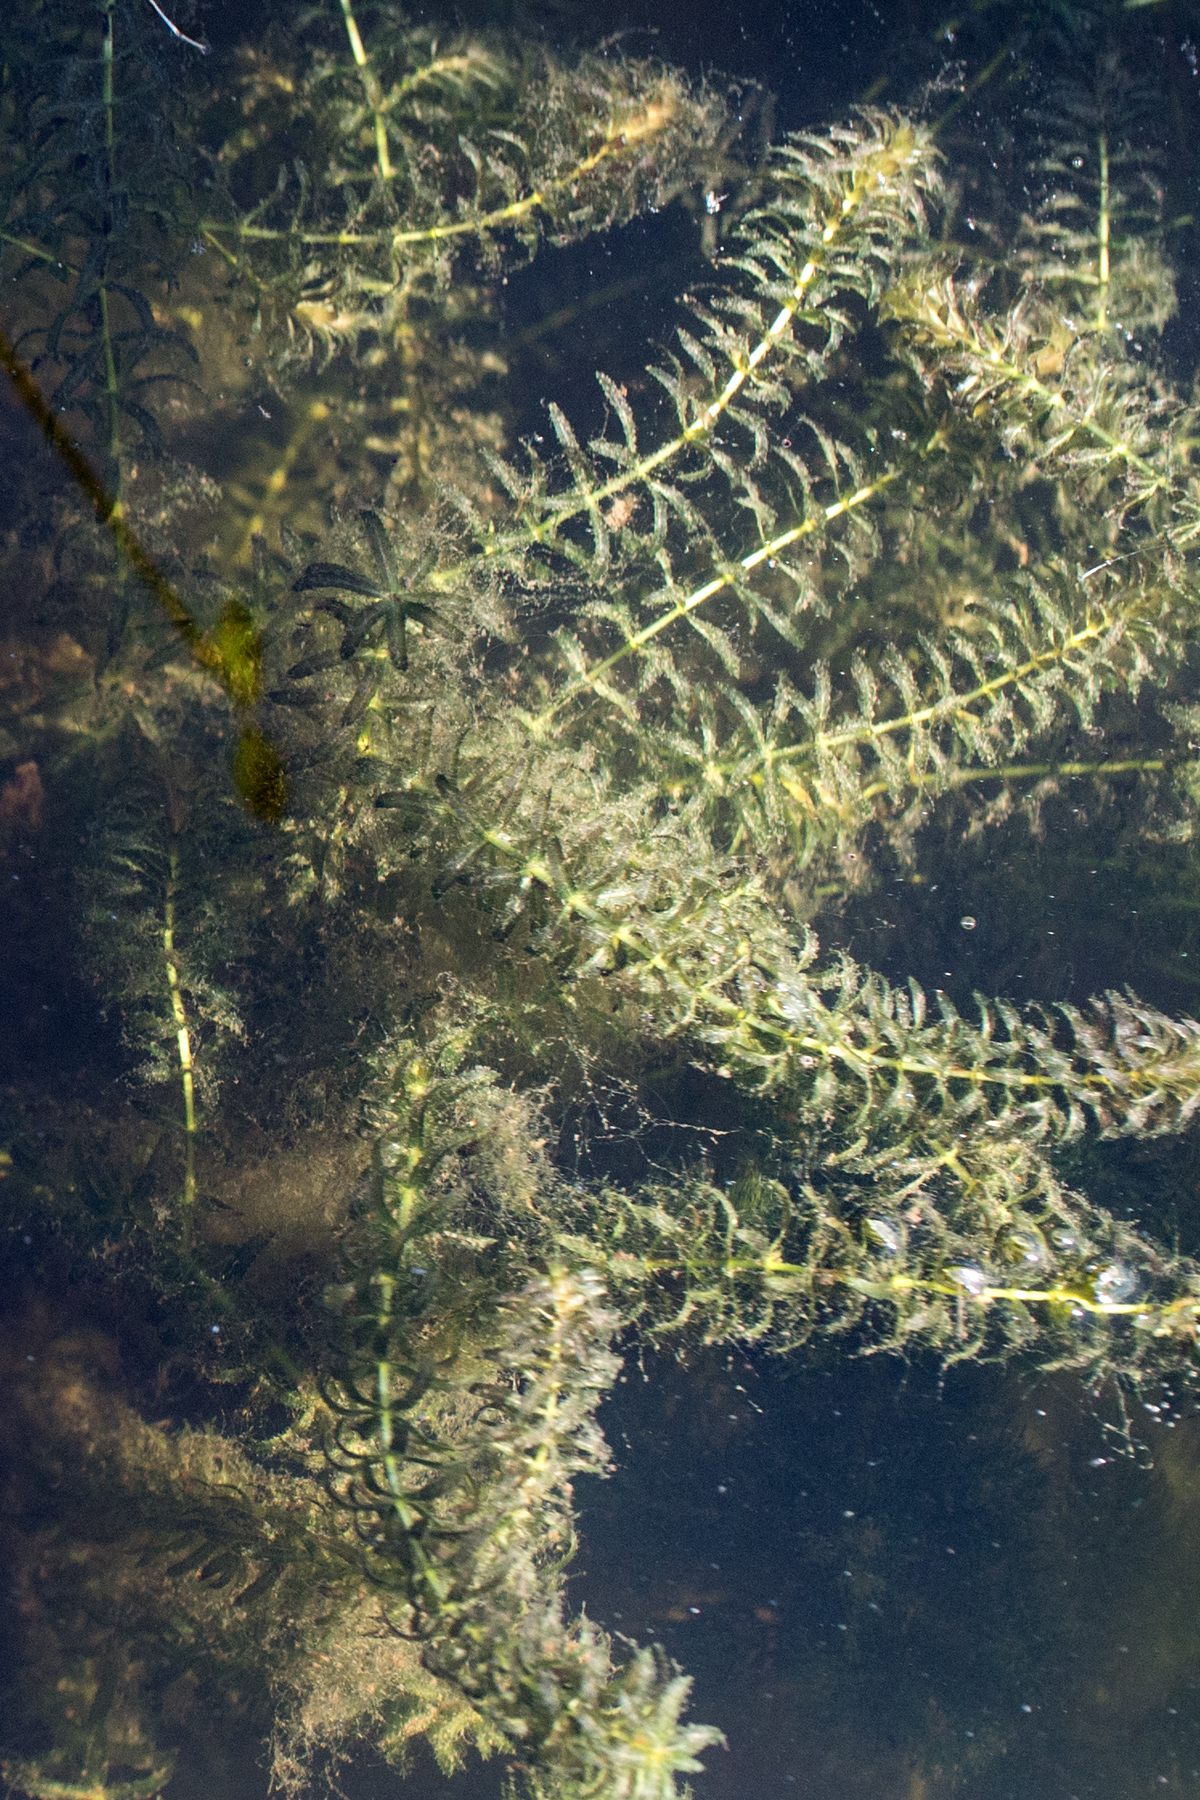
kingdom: Plantae
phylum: Tracheophyta
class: Liliopsida
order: Alismatales
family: Hydrocharitaceae
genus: Hydrilla
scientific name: Hydrilla verticillata
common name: Florida-elodea
